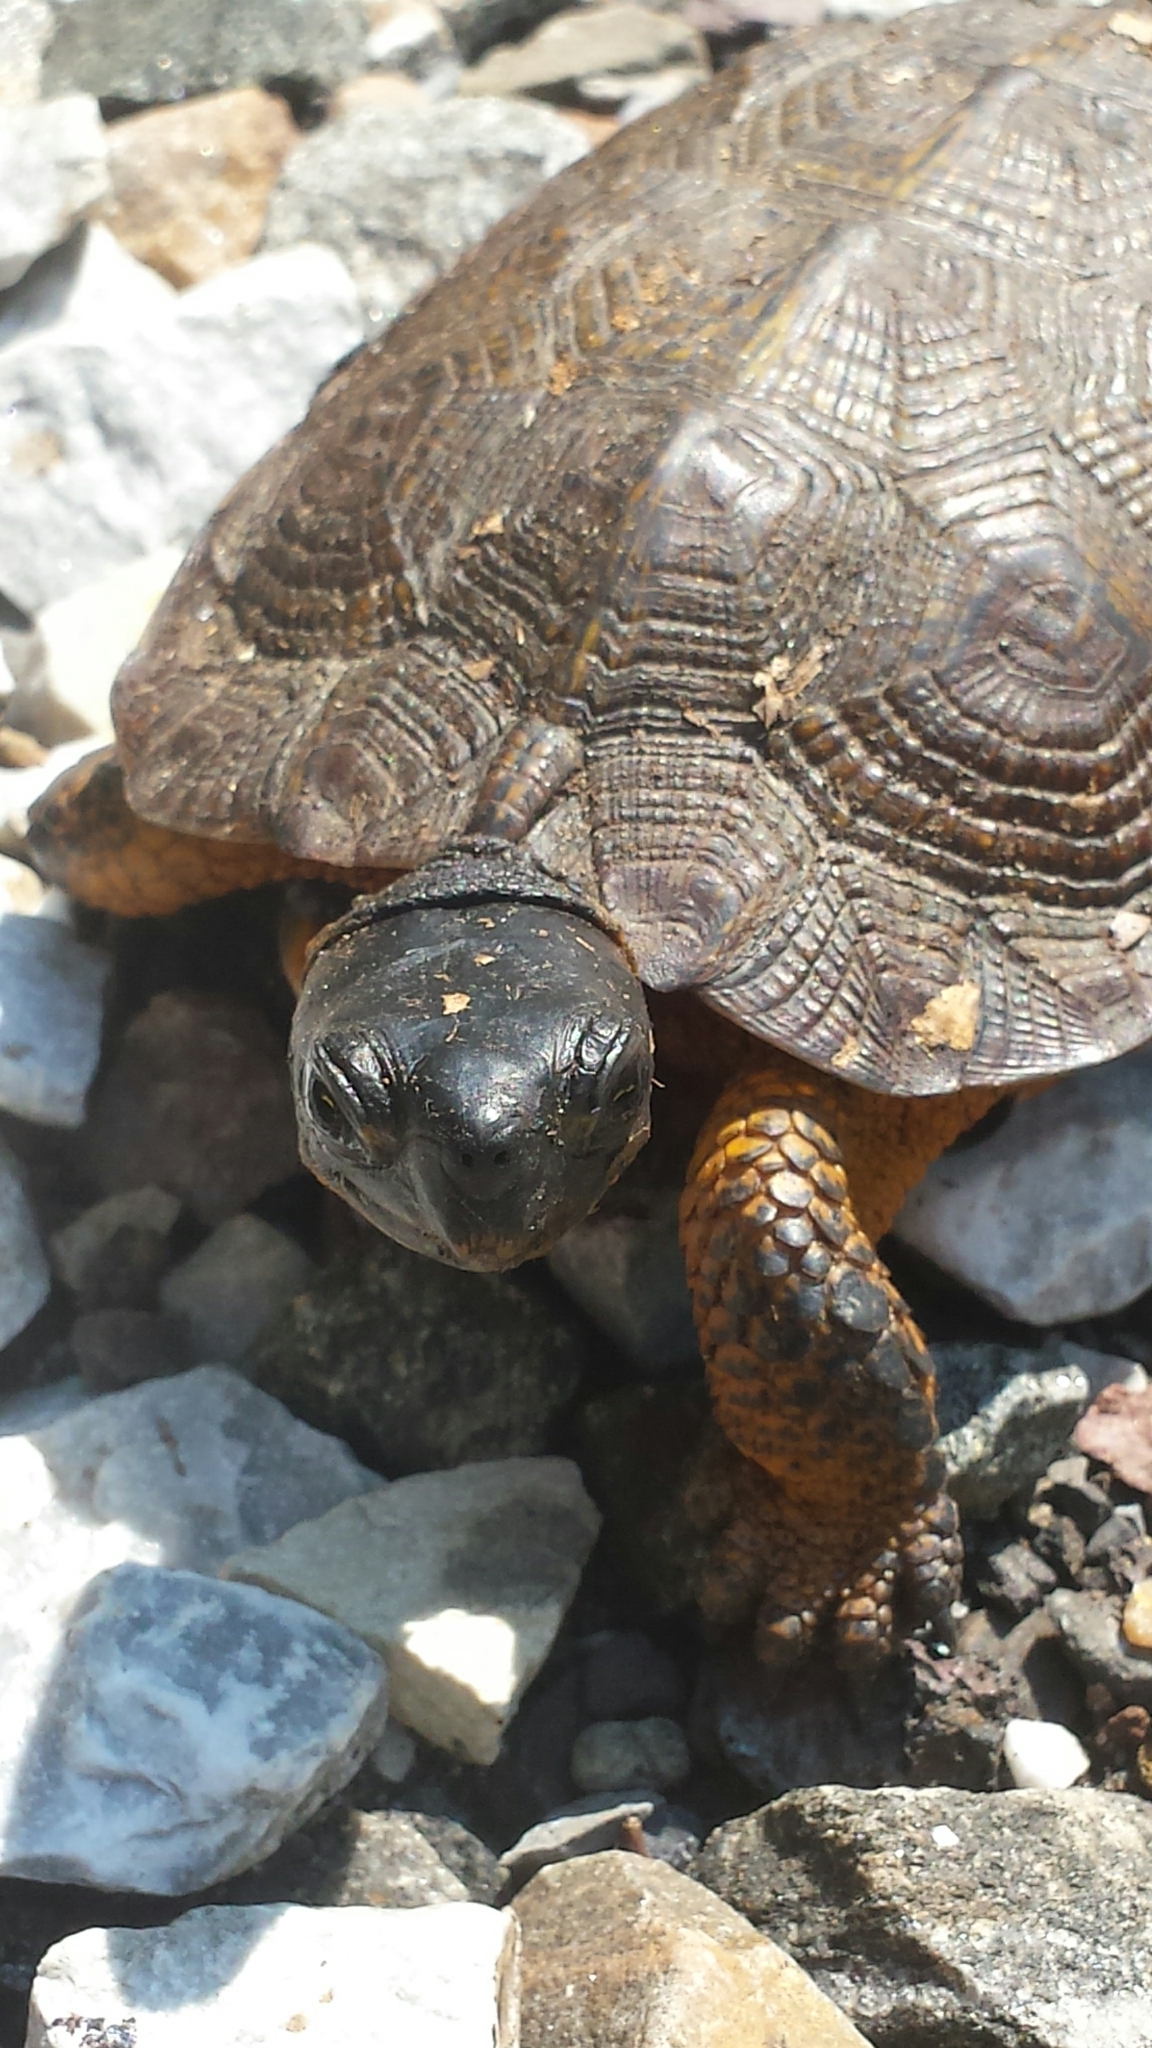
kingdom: Animalia
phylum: Chordata
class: Testudines
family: Emydidae
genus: Glyptemys
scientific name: Glyptemys insculpta
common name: Wood turtle
